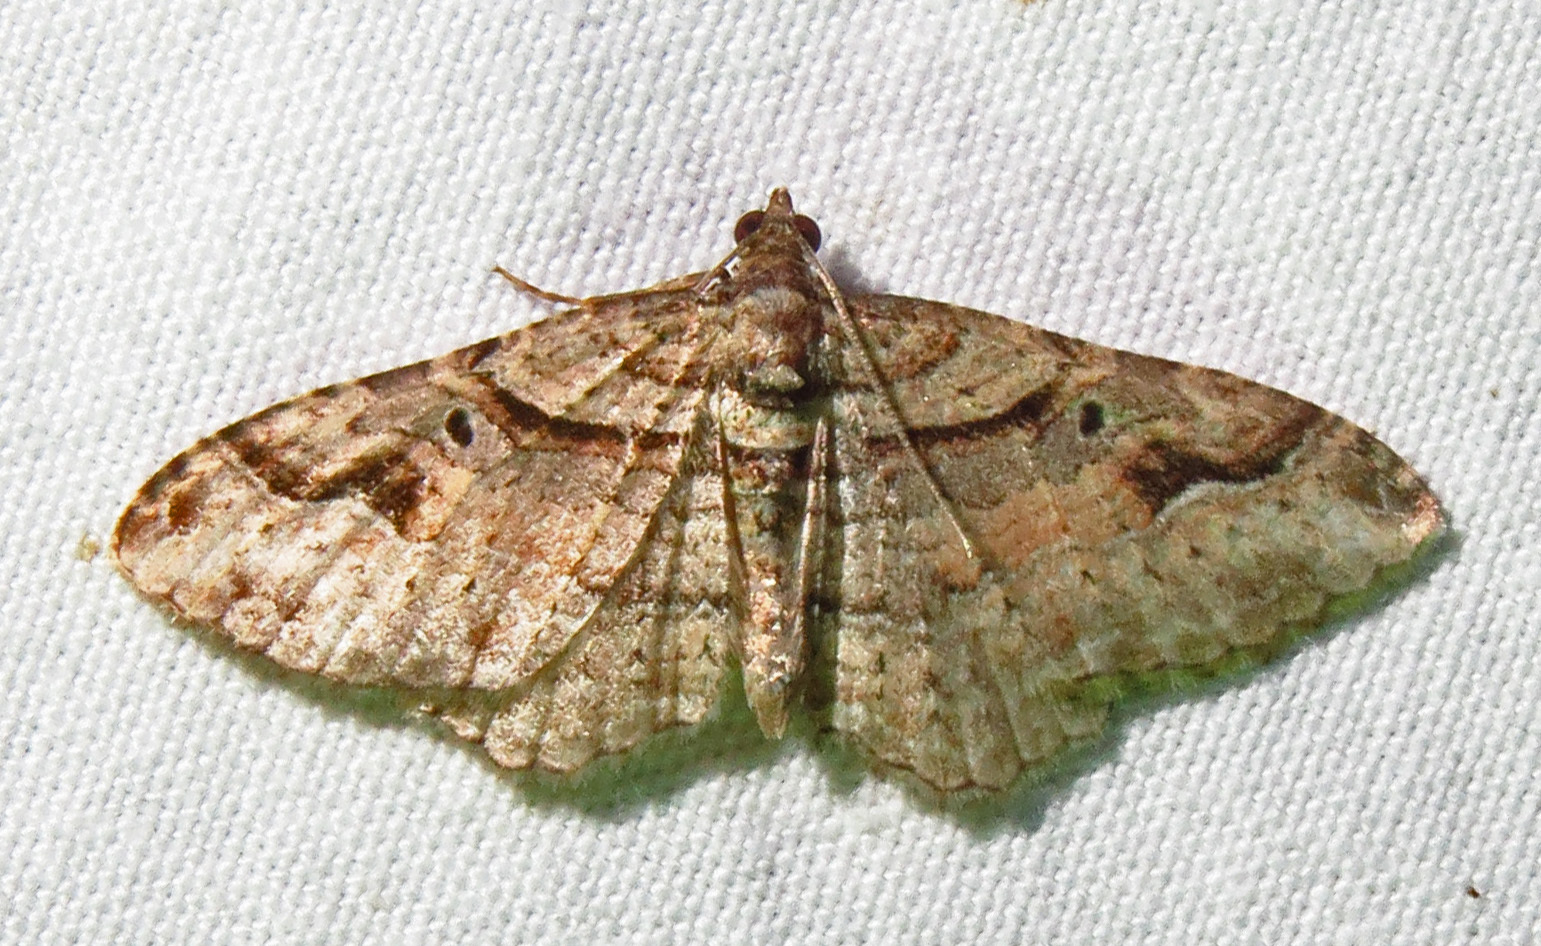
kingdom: Animalia
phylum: Arthropoda
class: Insecta
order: Lepidoptera
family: Geometridae
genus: Costaconvexa
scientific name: Costaconvexa centrostrigaria
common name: Bent-line carpet
